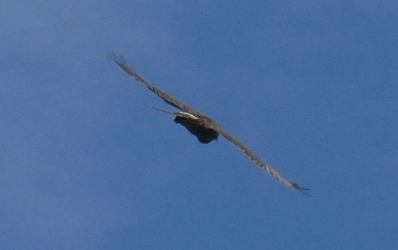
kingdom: Animalia
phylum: Chordata
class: Aves
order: Accipitriformes
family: Accipitridae
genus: Buteo
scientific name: Buteo nitidus
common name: Grey-lined hawk
